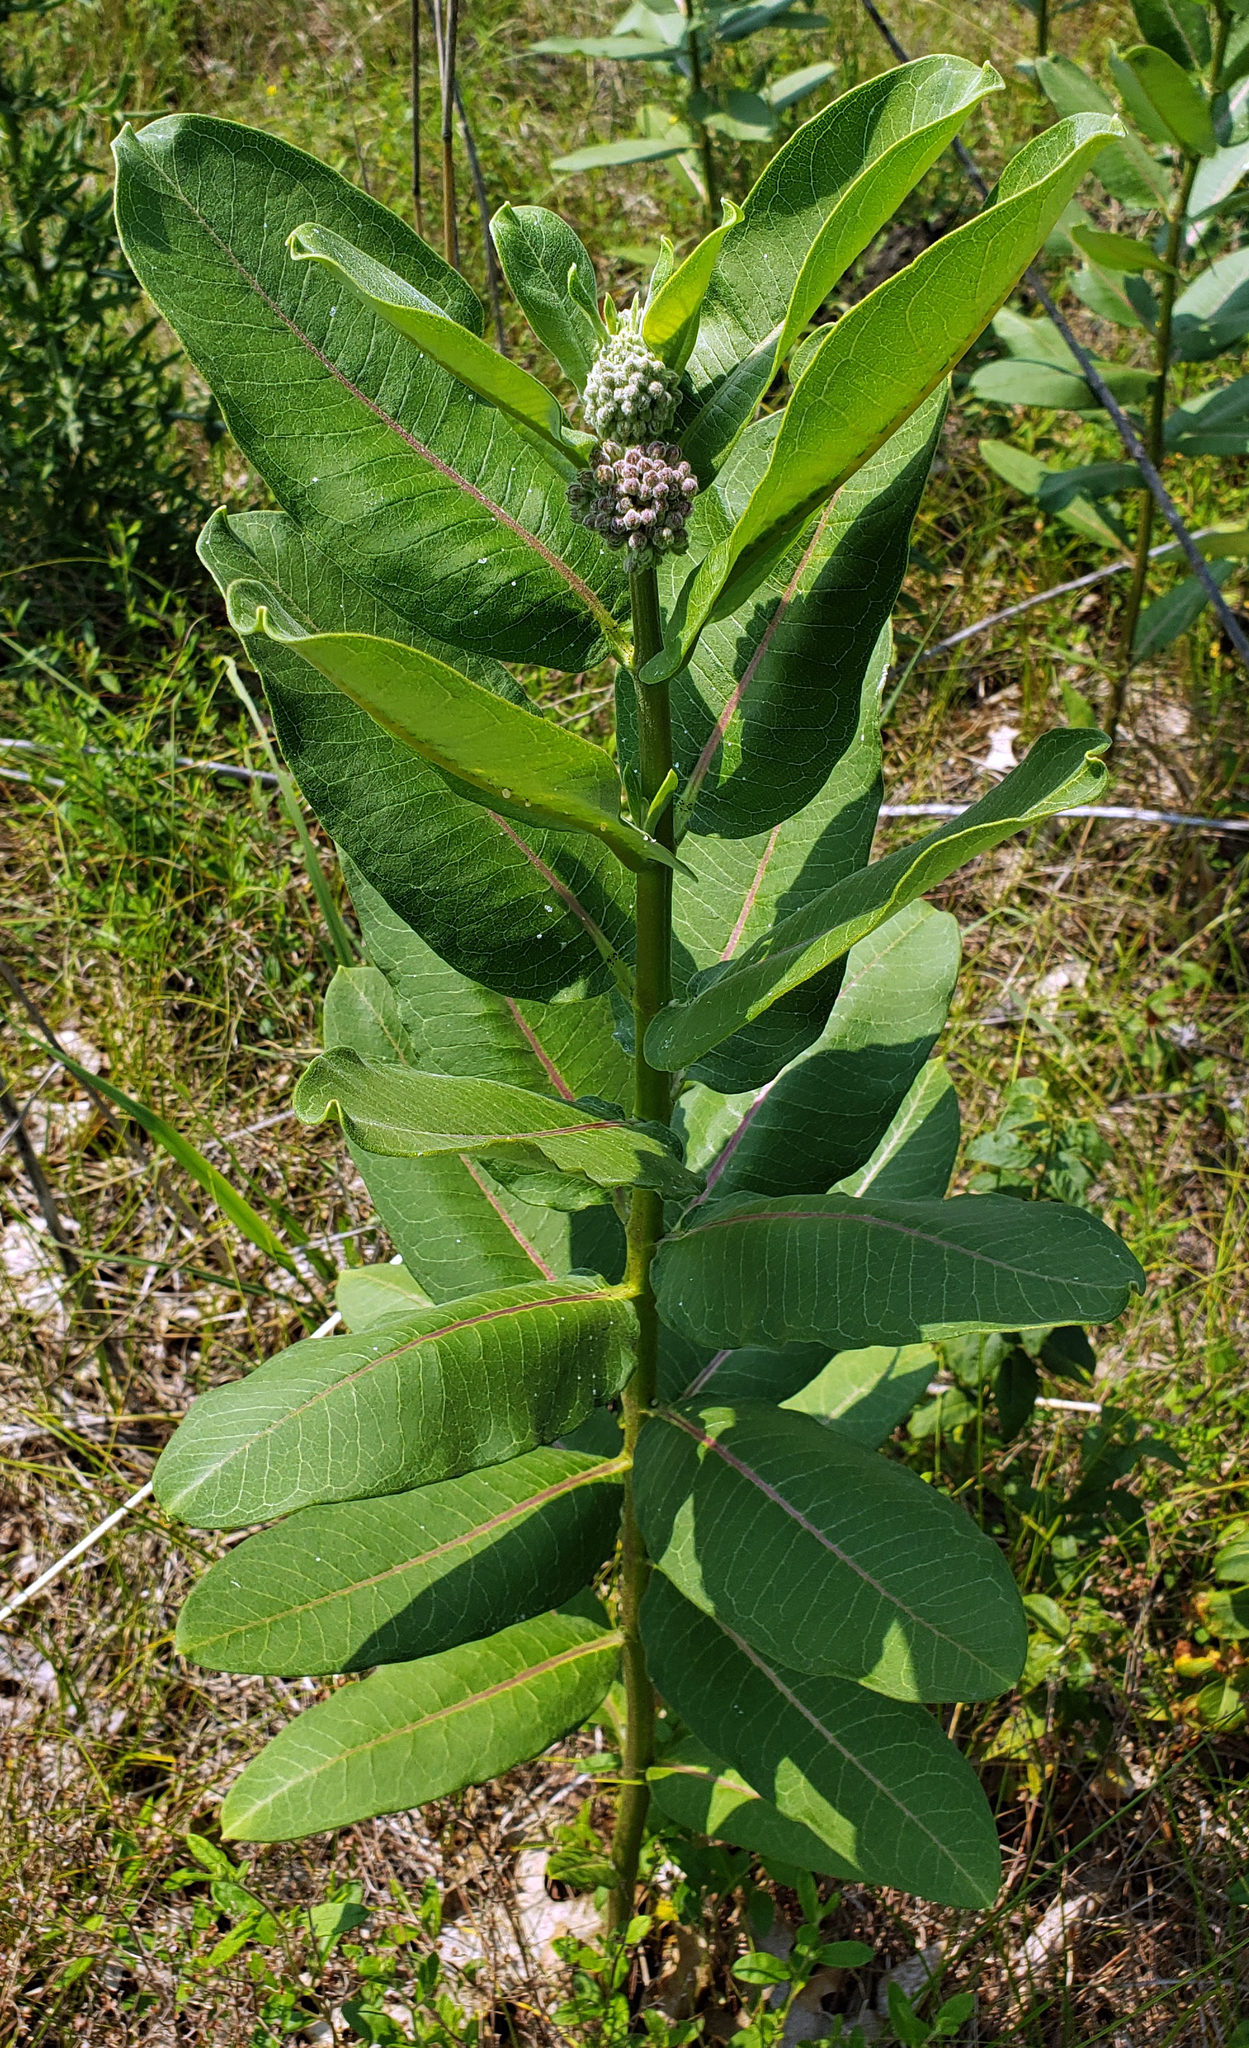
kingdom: Plantae
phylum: Tracheophyta
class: Magnoliopsida
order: Gentianales
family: Apocynaceae
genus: Asclepias
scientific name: Asclepias syriaca
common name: Common milkweed
